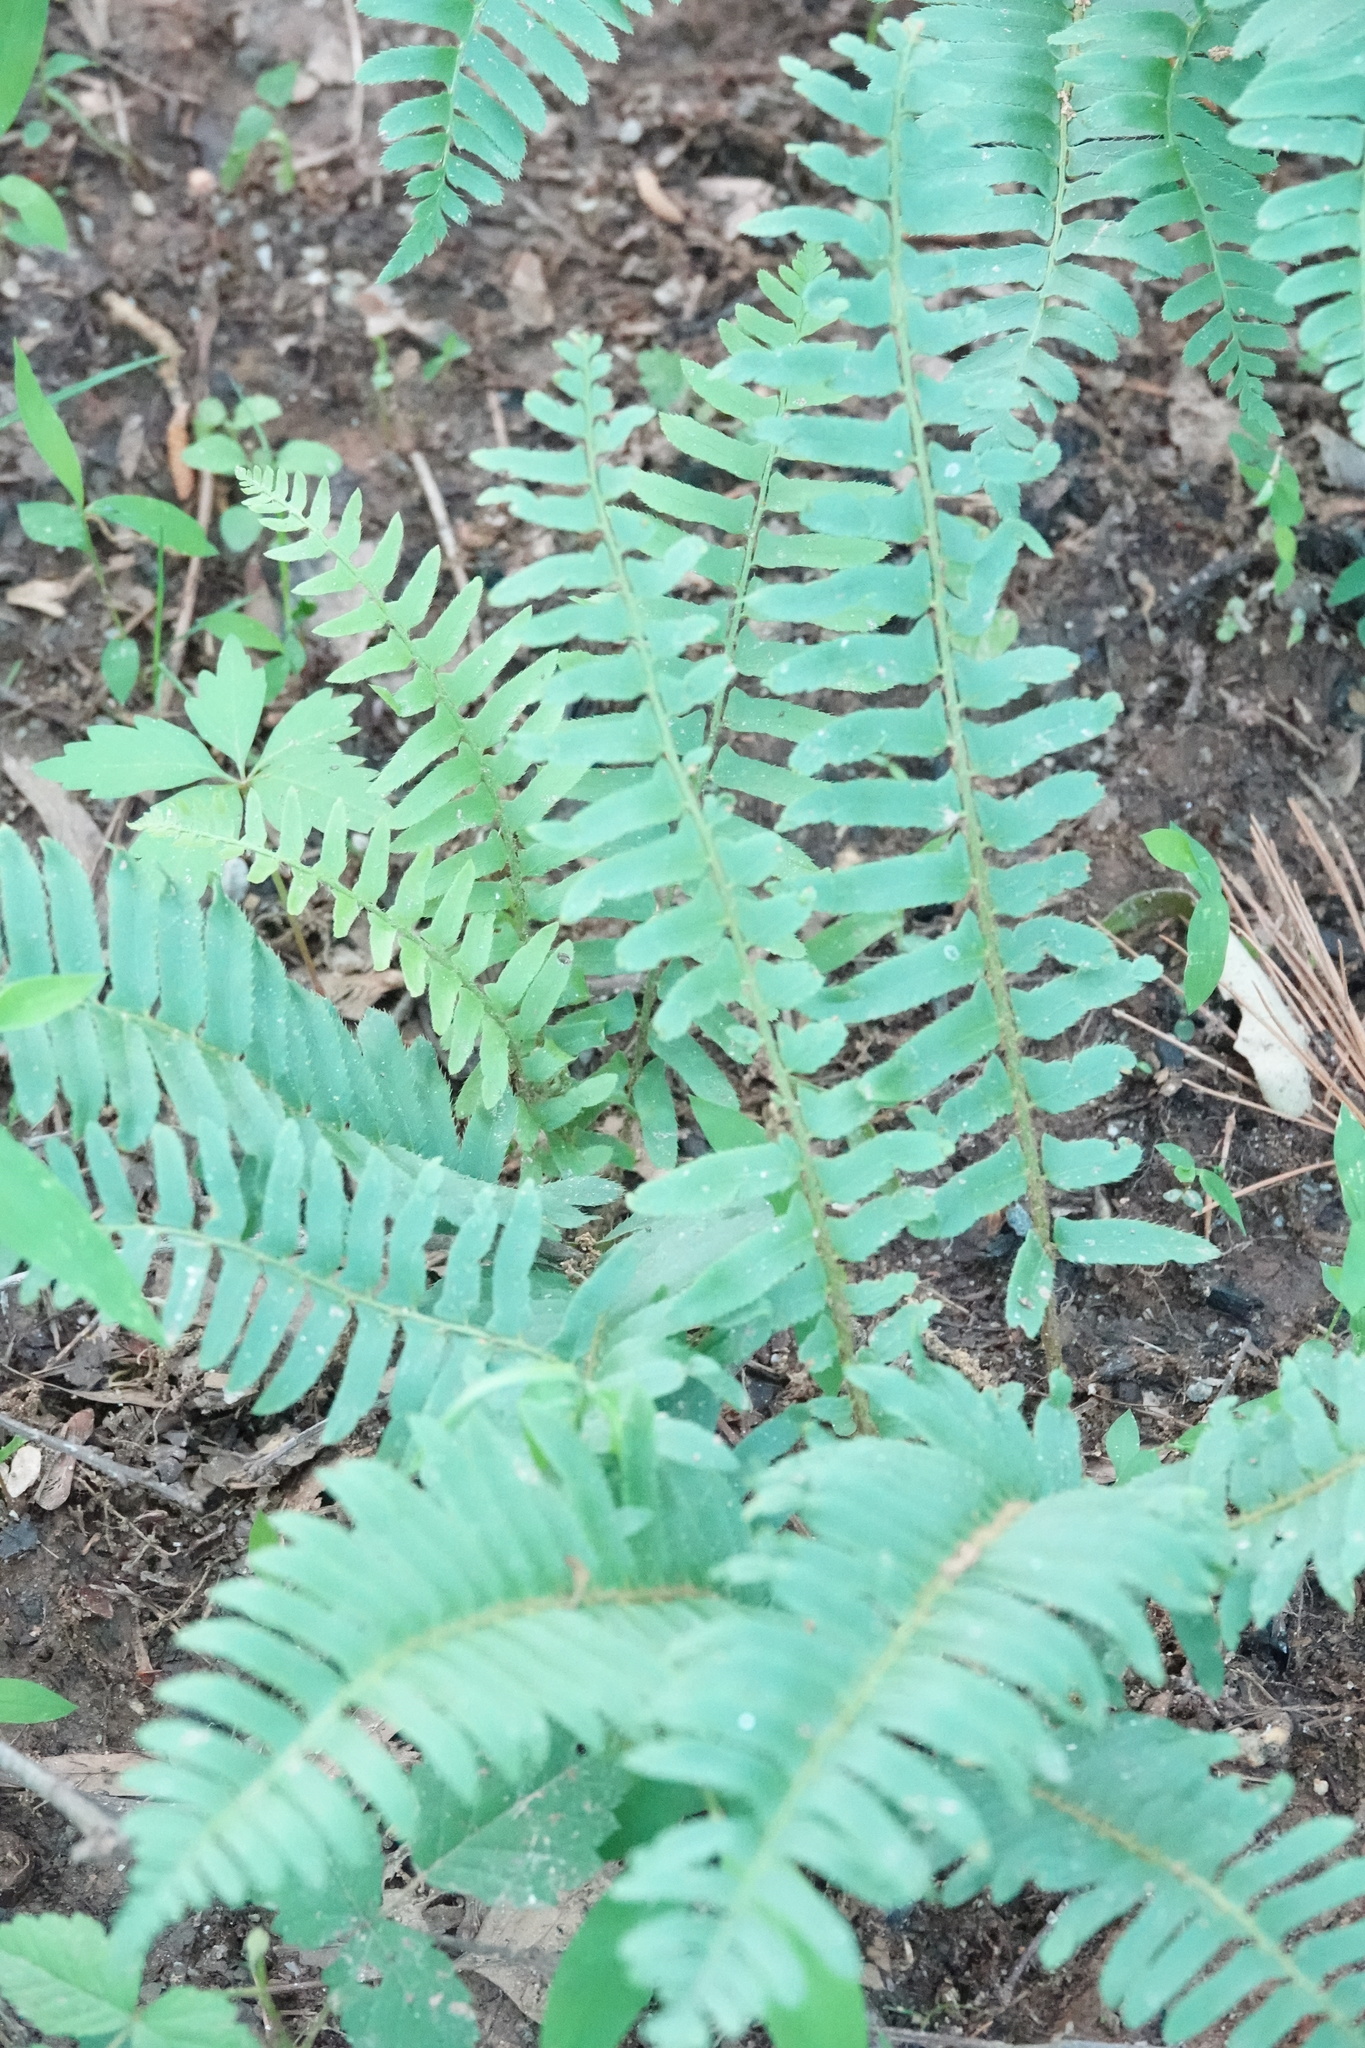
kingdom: Plantae
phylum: Tracheophyta
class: Polypodiopsida
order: Polypodiales
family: Dryopteridaceae
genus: Polystichum
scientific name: Polystichum acrostichoides
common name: Christmas fern
